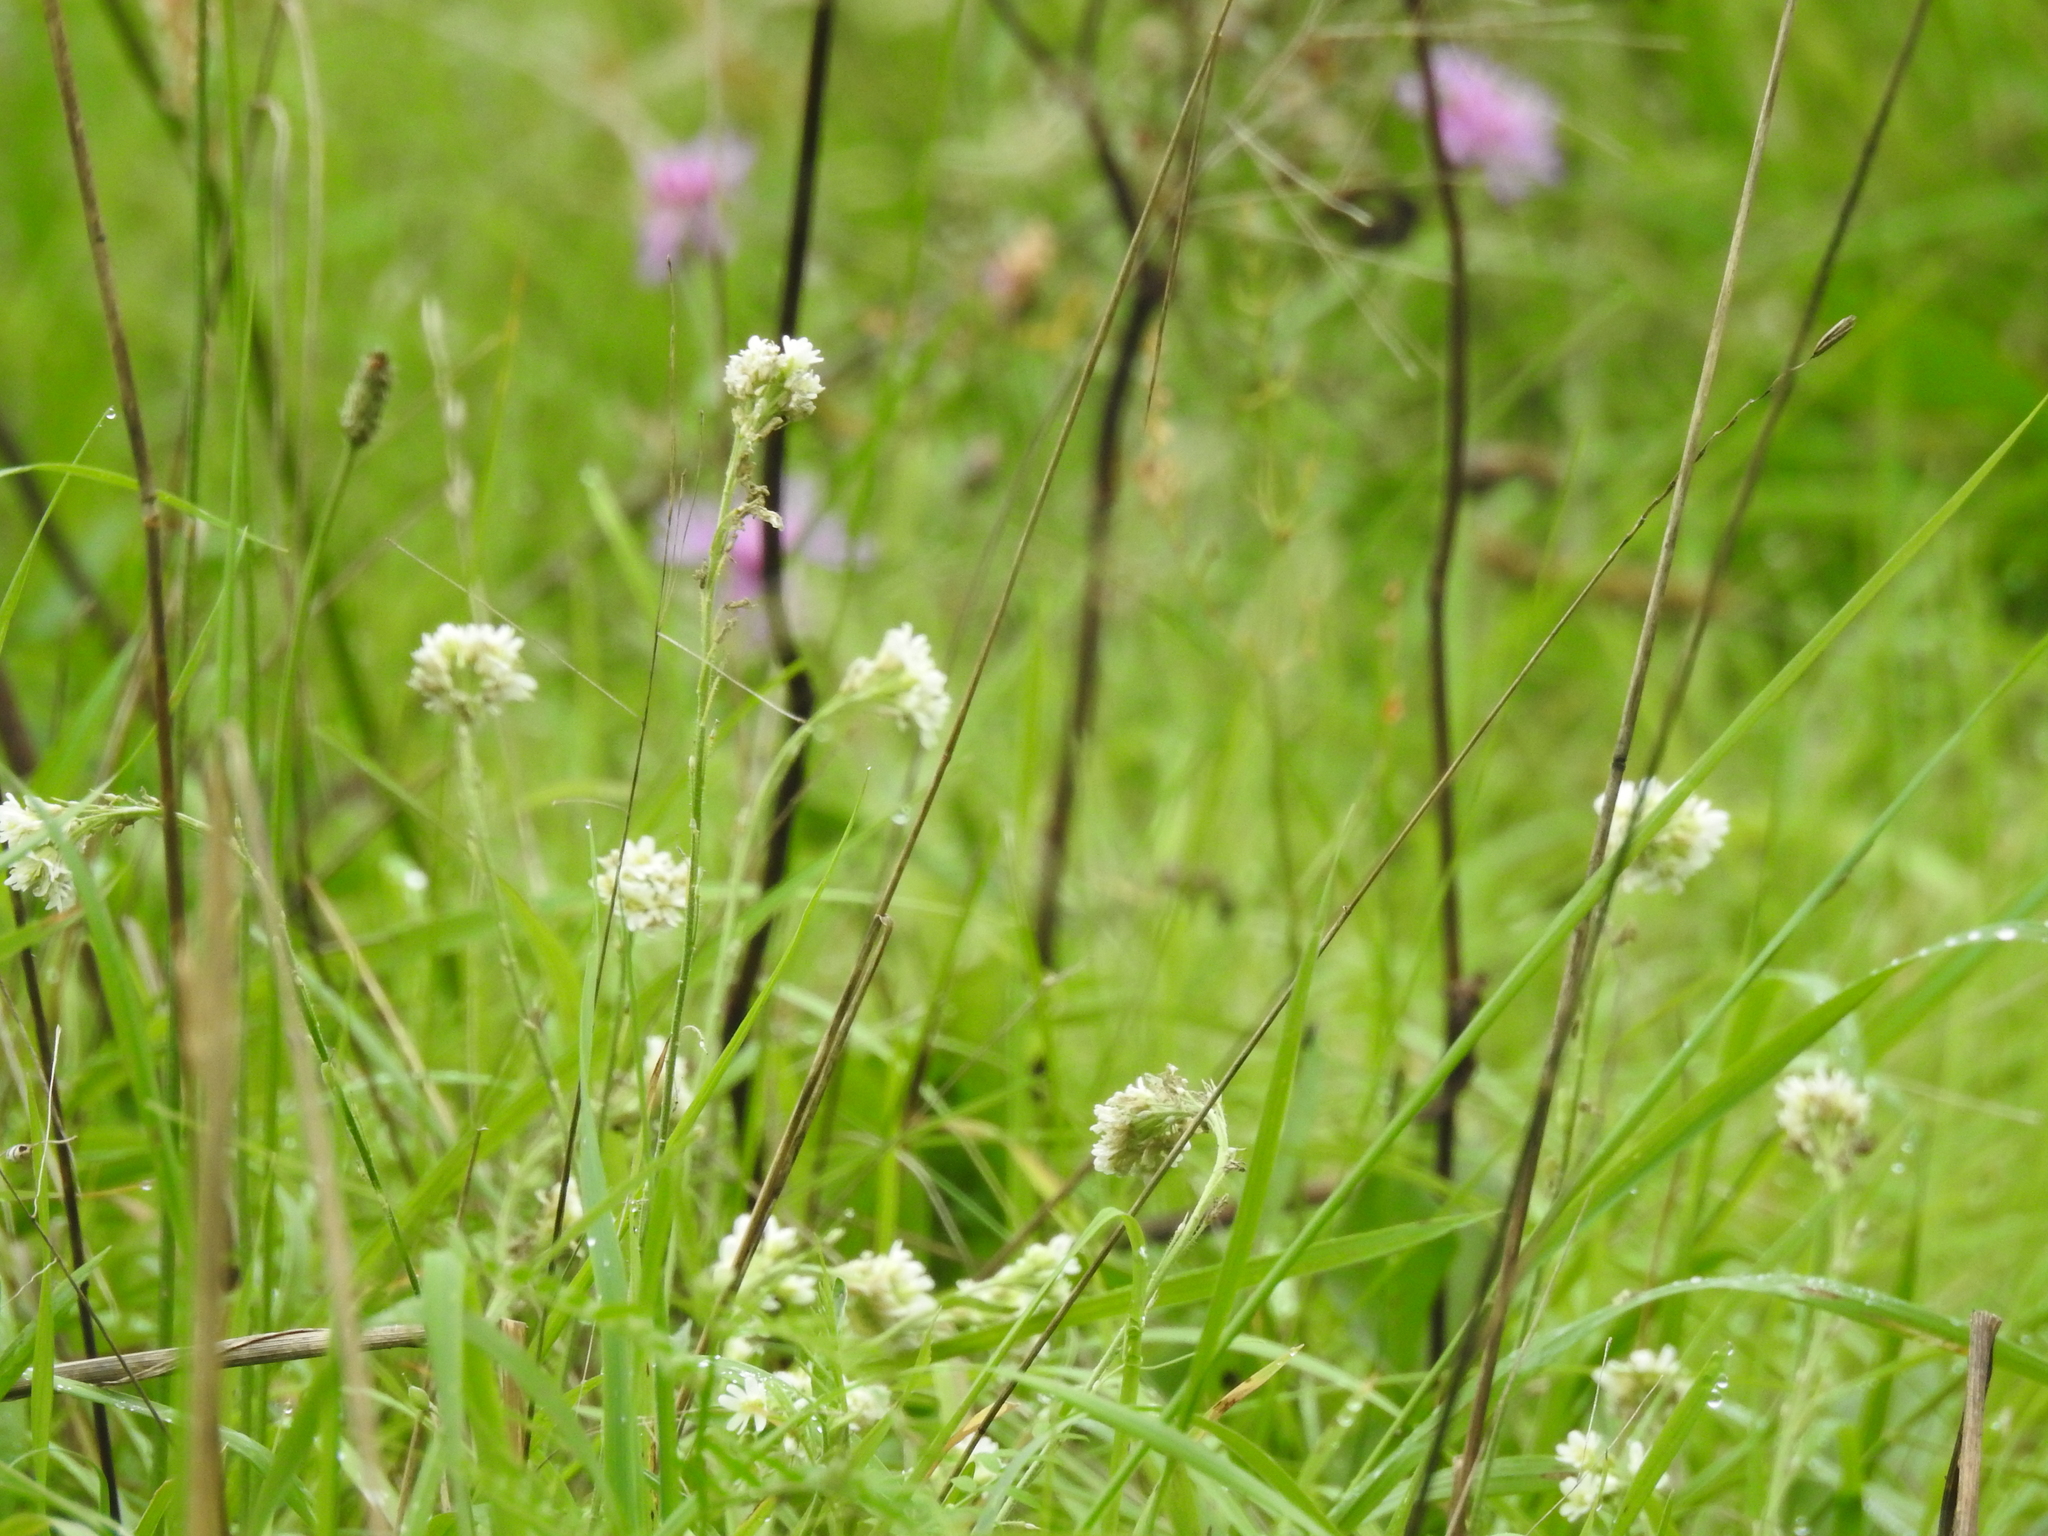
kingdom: Plantae
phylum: Tracheophyta
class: Magnoliopsida
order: Brassicales
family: Brassicaceae
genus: Berteroa
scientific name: Berteroa incana
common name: Hoary alison
